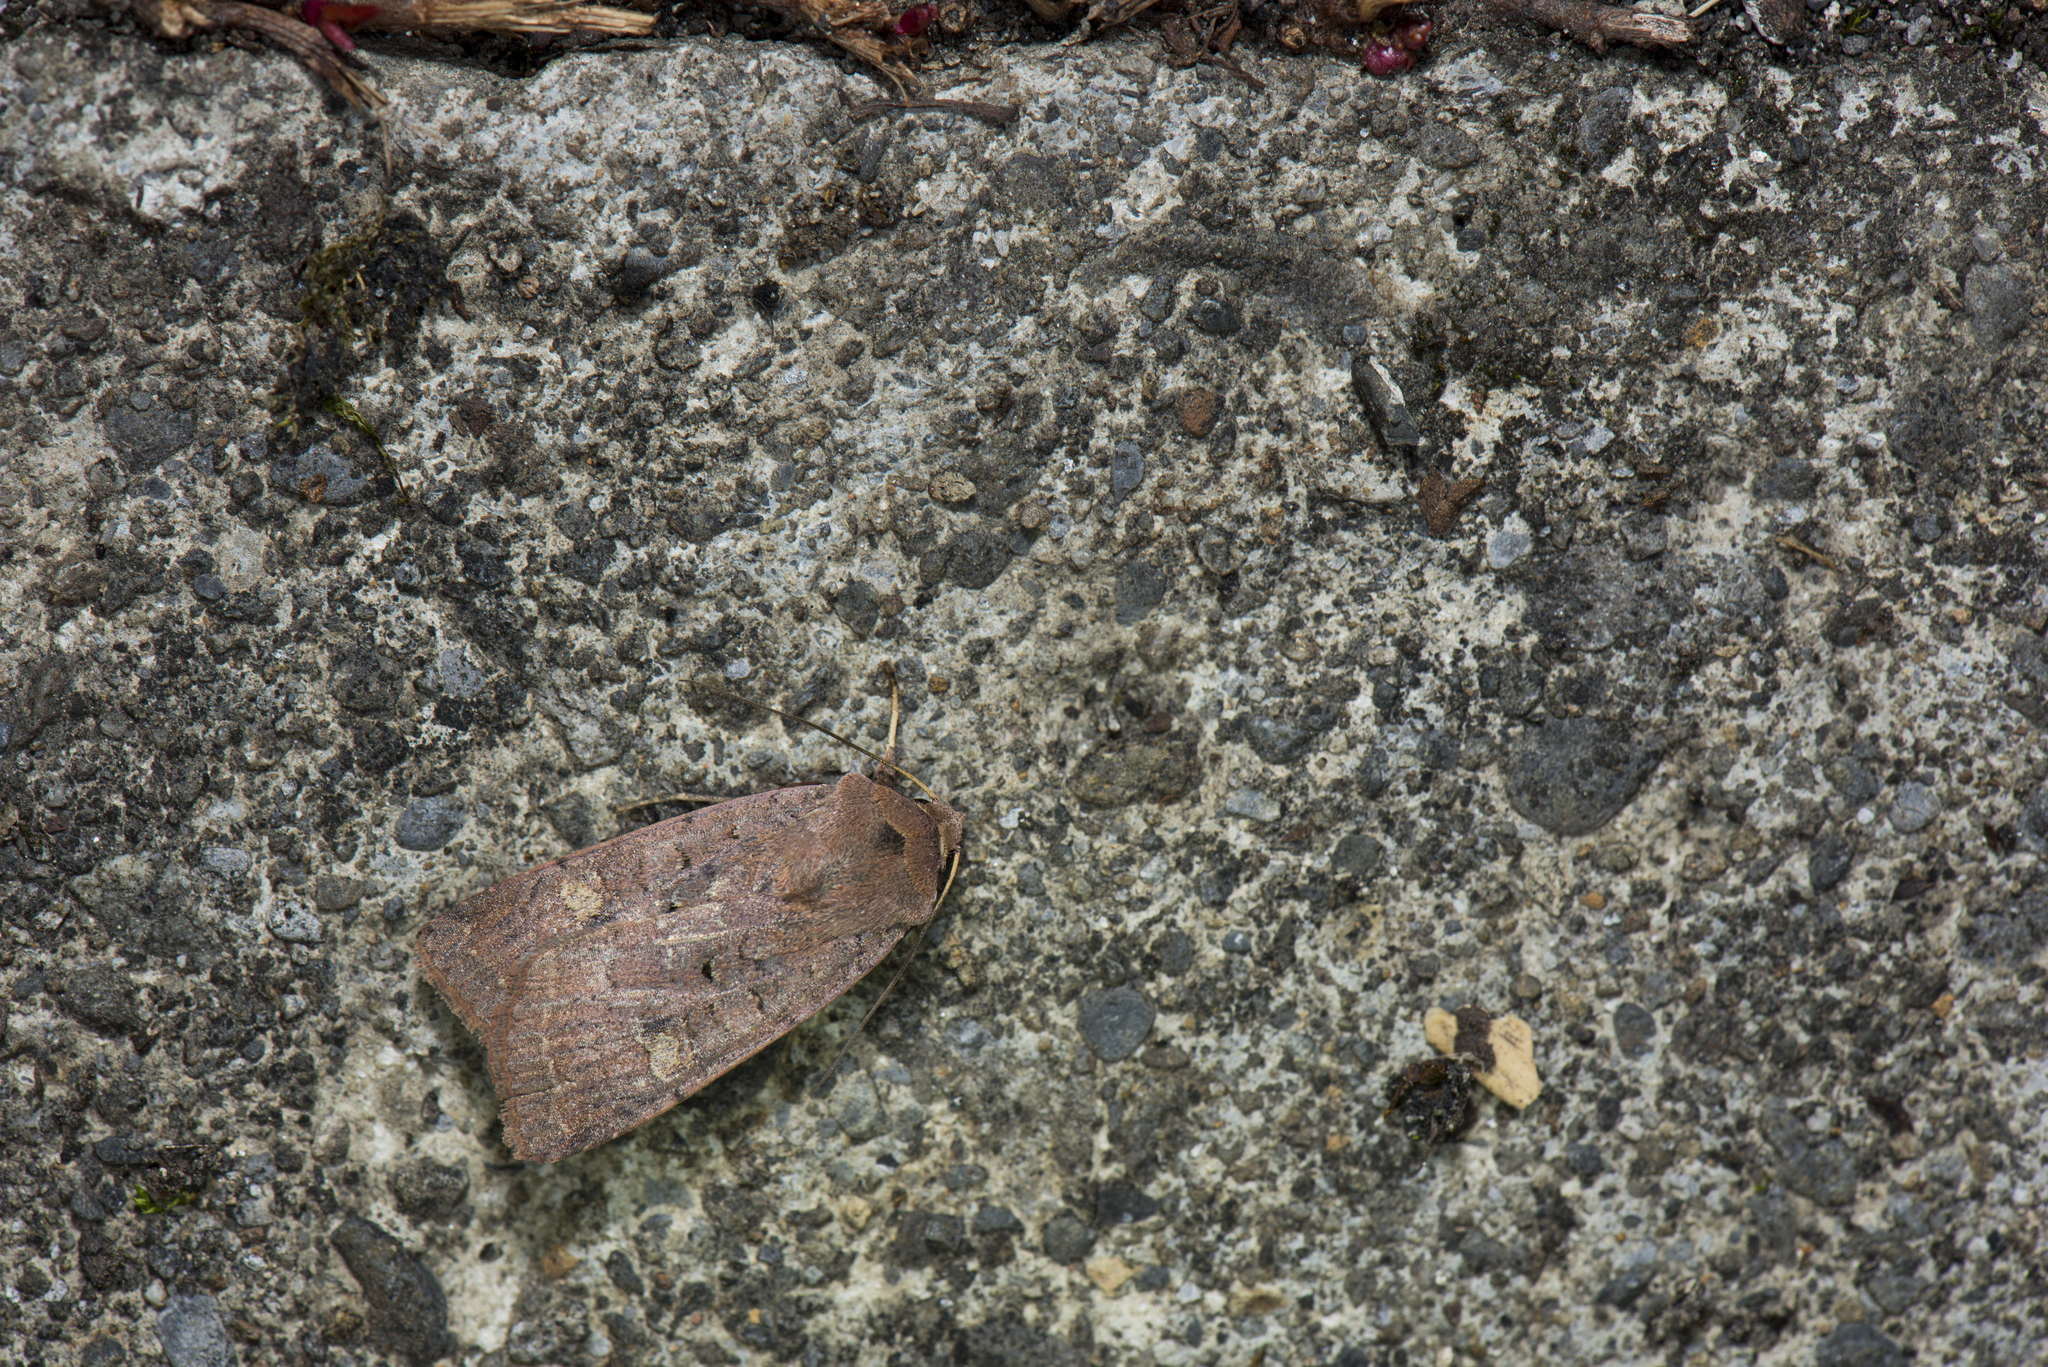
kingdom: Animalia
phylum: Arthropoda
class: Insecta
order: Lepidoptera
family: Noctuidae
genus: Diarsia
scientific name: Diarsia nigrosigna
